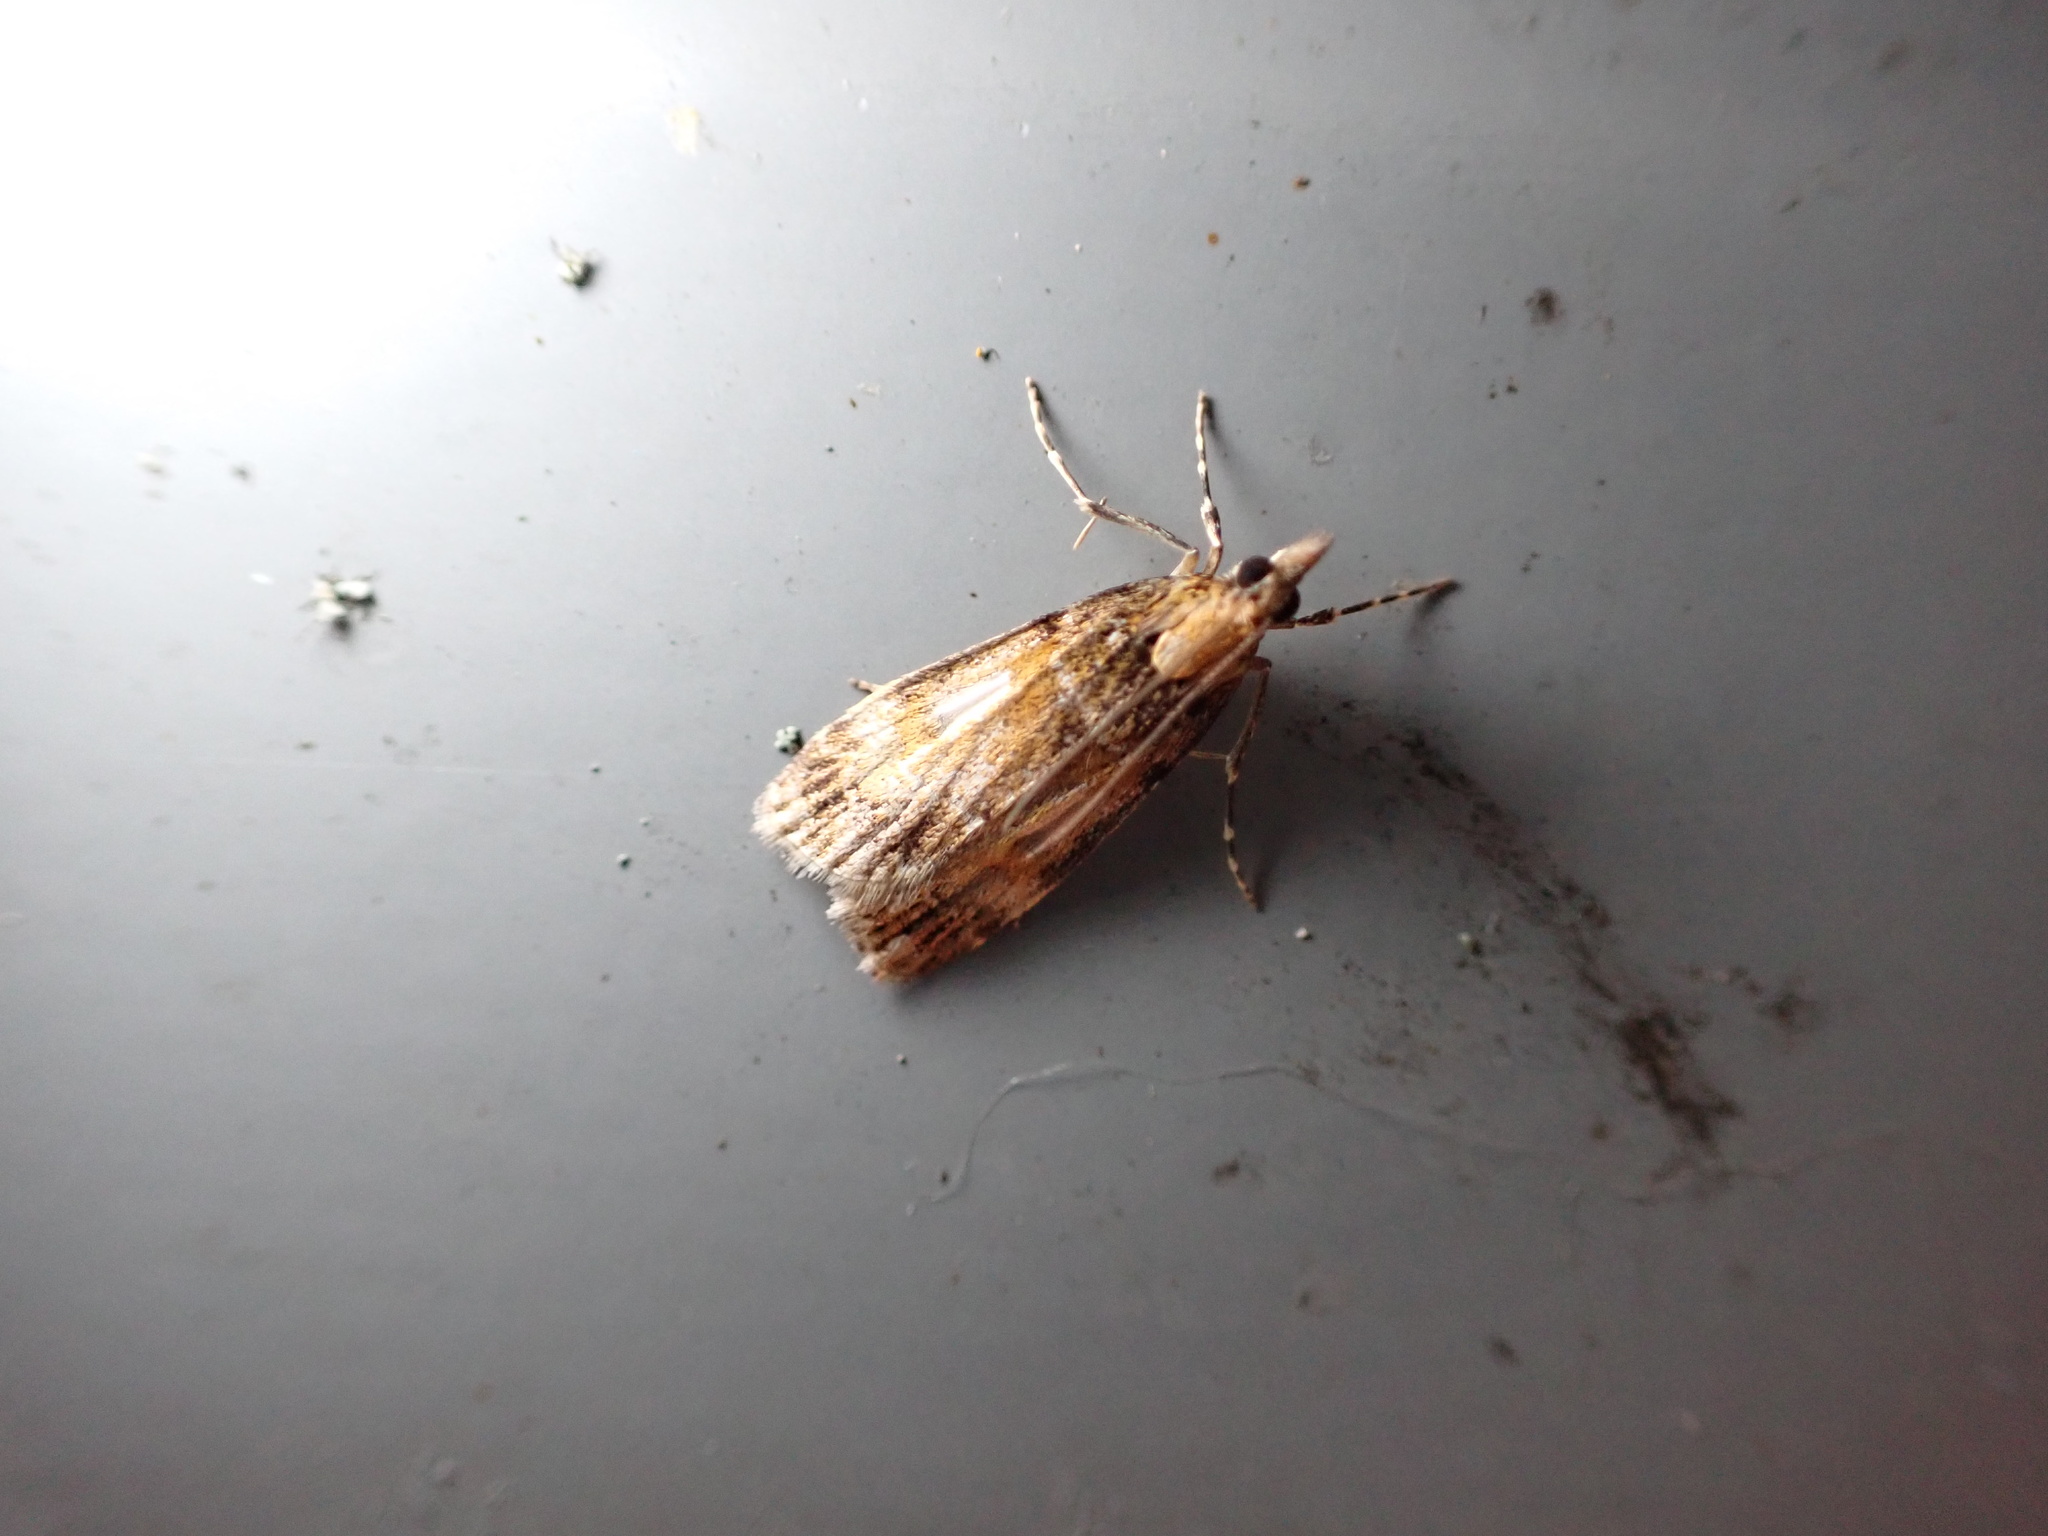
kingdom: Animalia
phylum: Arthropoda
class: Insecta
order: Lepidoptera
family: Crambidae
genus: Eudonia
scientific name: Eudonia thyridias
